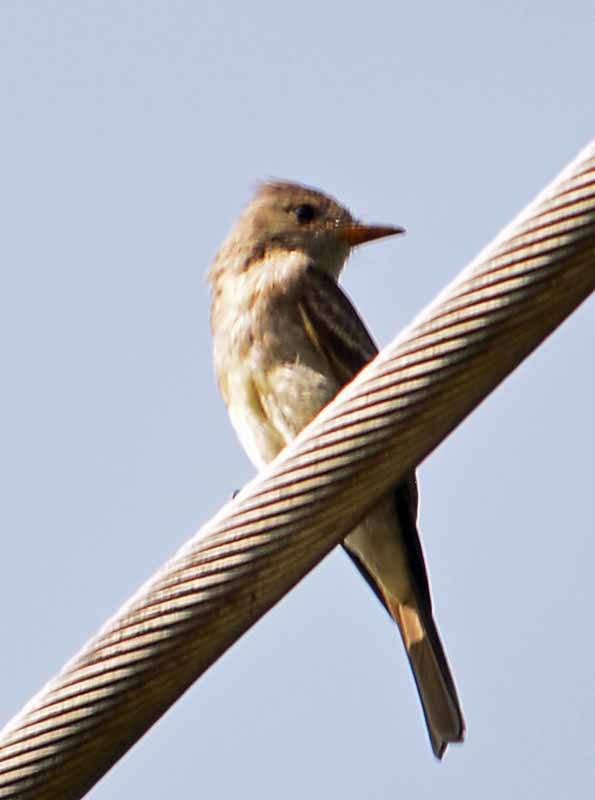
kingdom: Animalia
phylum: Chordata
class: Aves
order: Passeriformes
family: Tyrannidae
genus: Contopus
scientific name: Contopus pertinax
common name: Greater pewee
